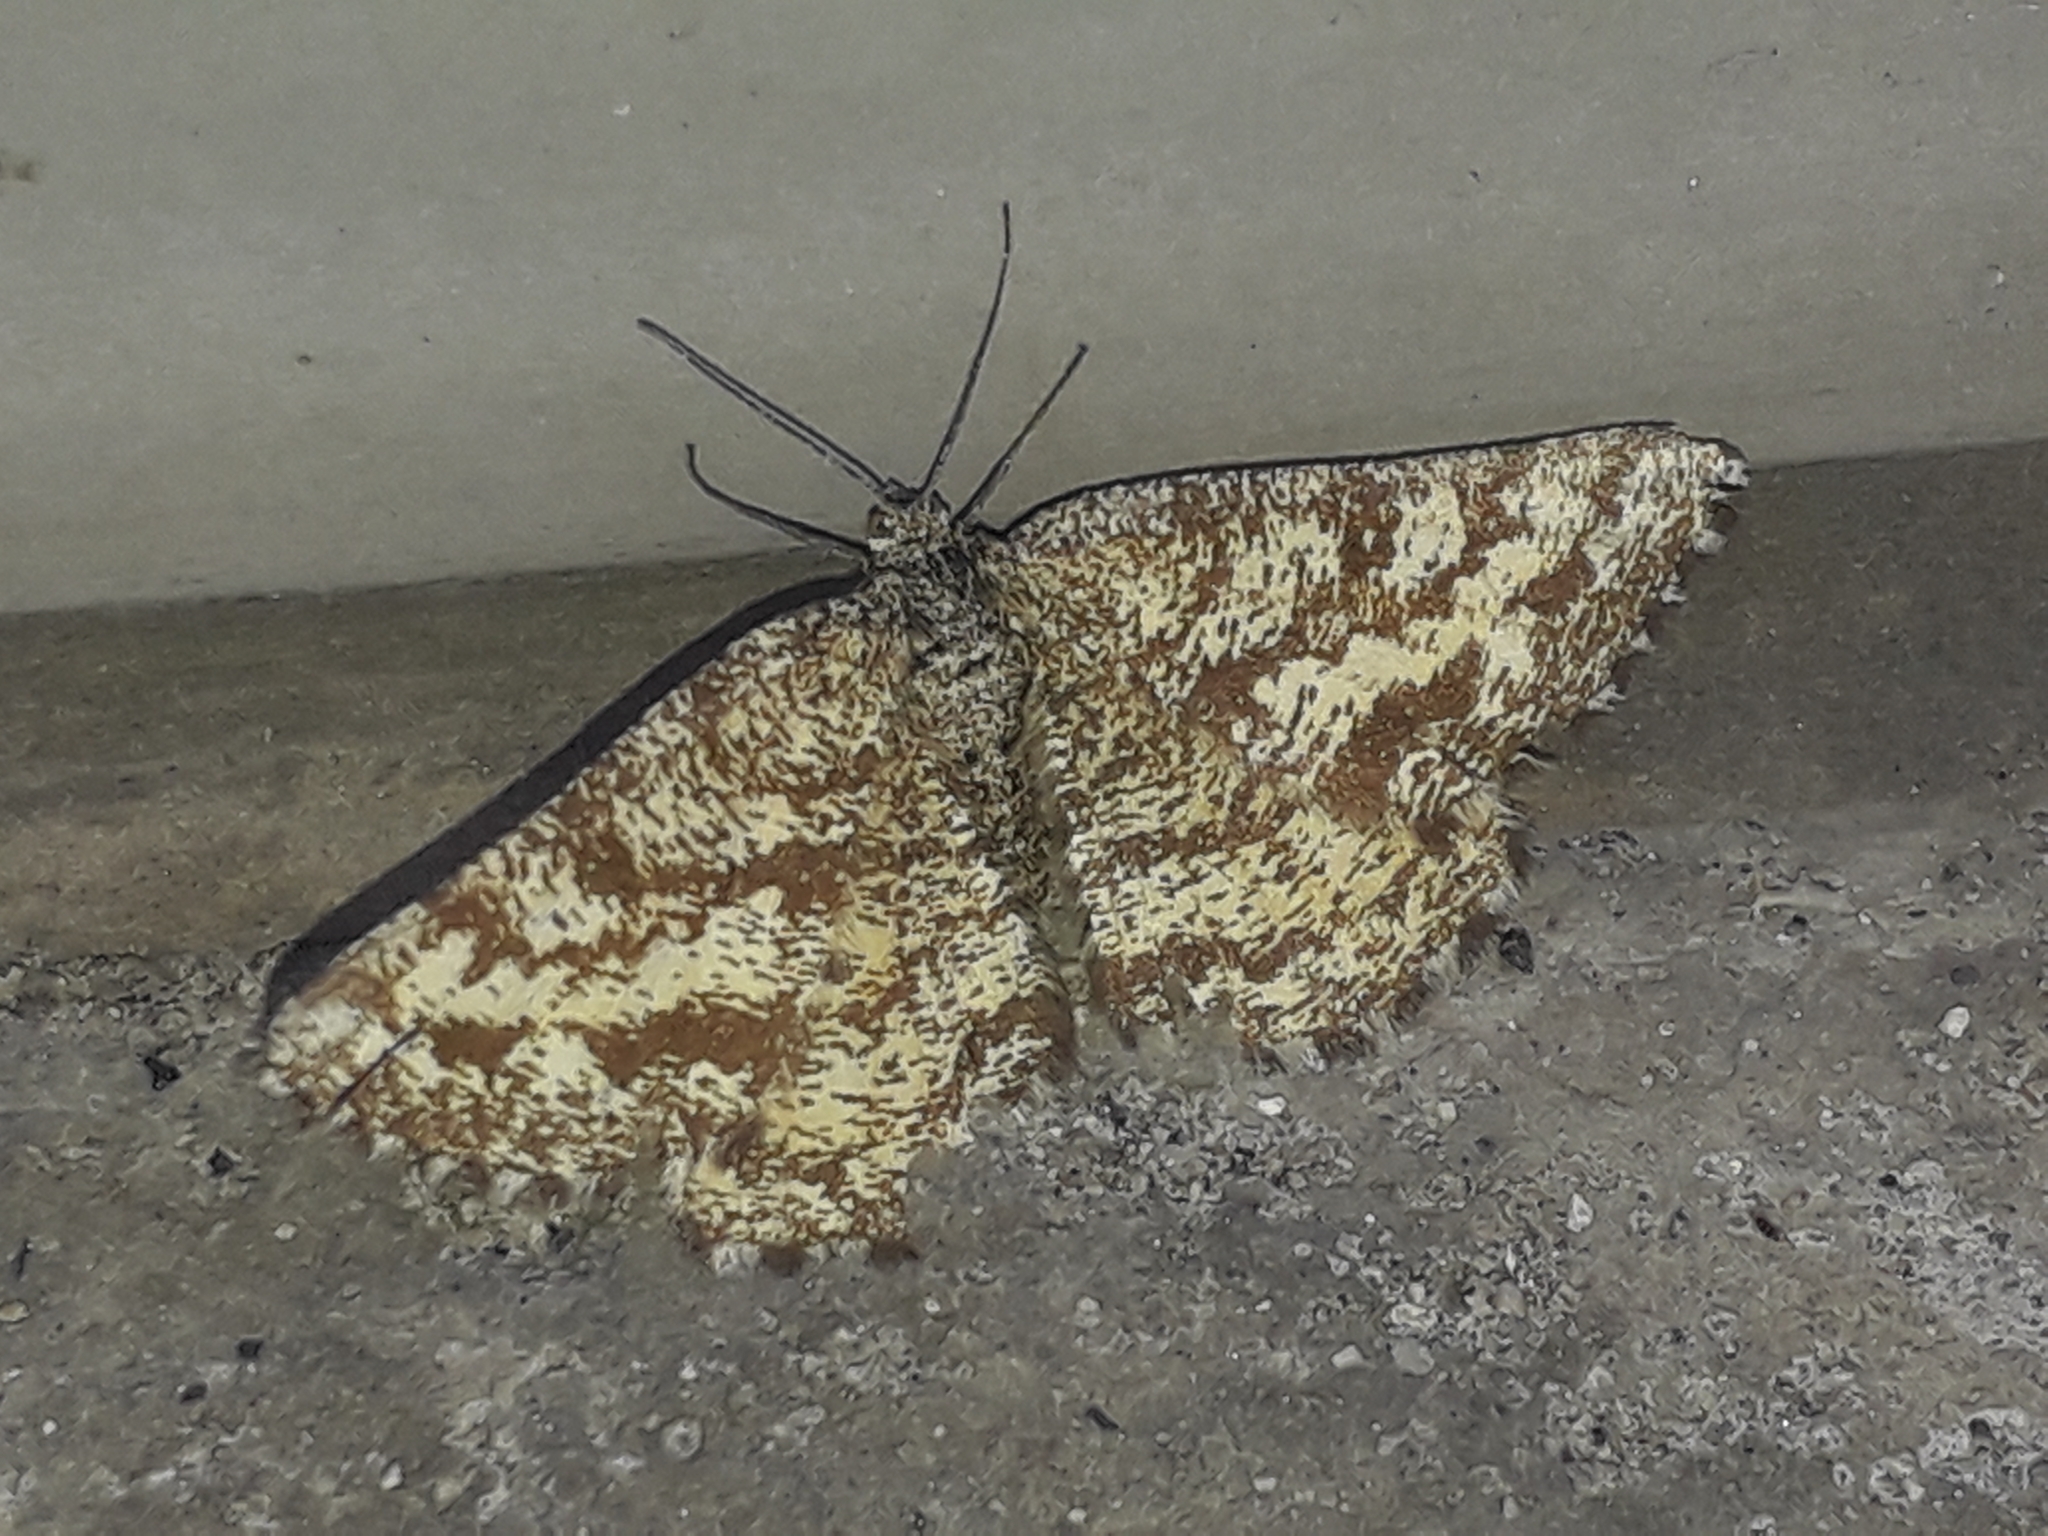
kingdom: Animalia
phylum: Arthropoda
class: Insecta
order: Lepidoptera
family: Geometridae
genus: Ematurga
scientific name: Ematurga atomaria
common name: Common heath
